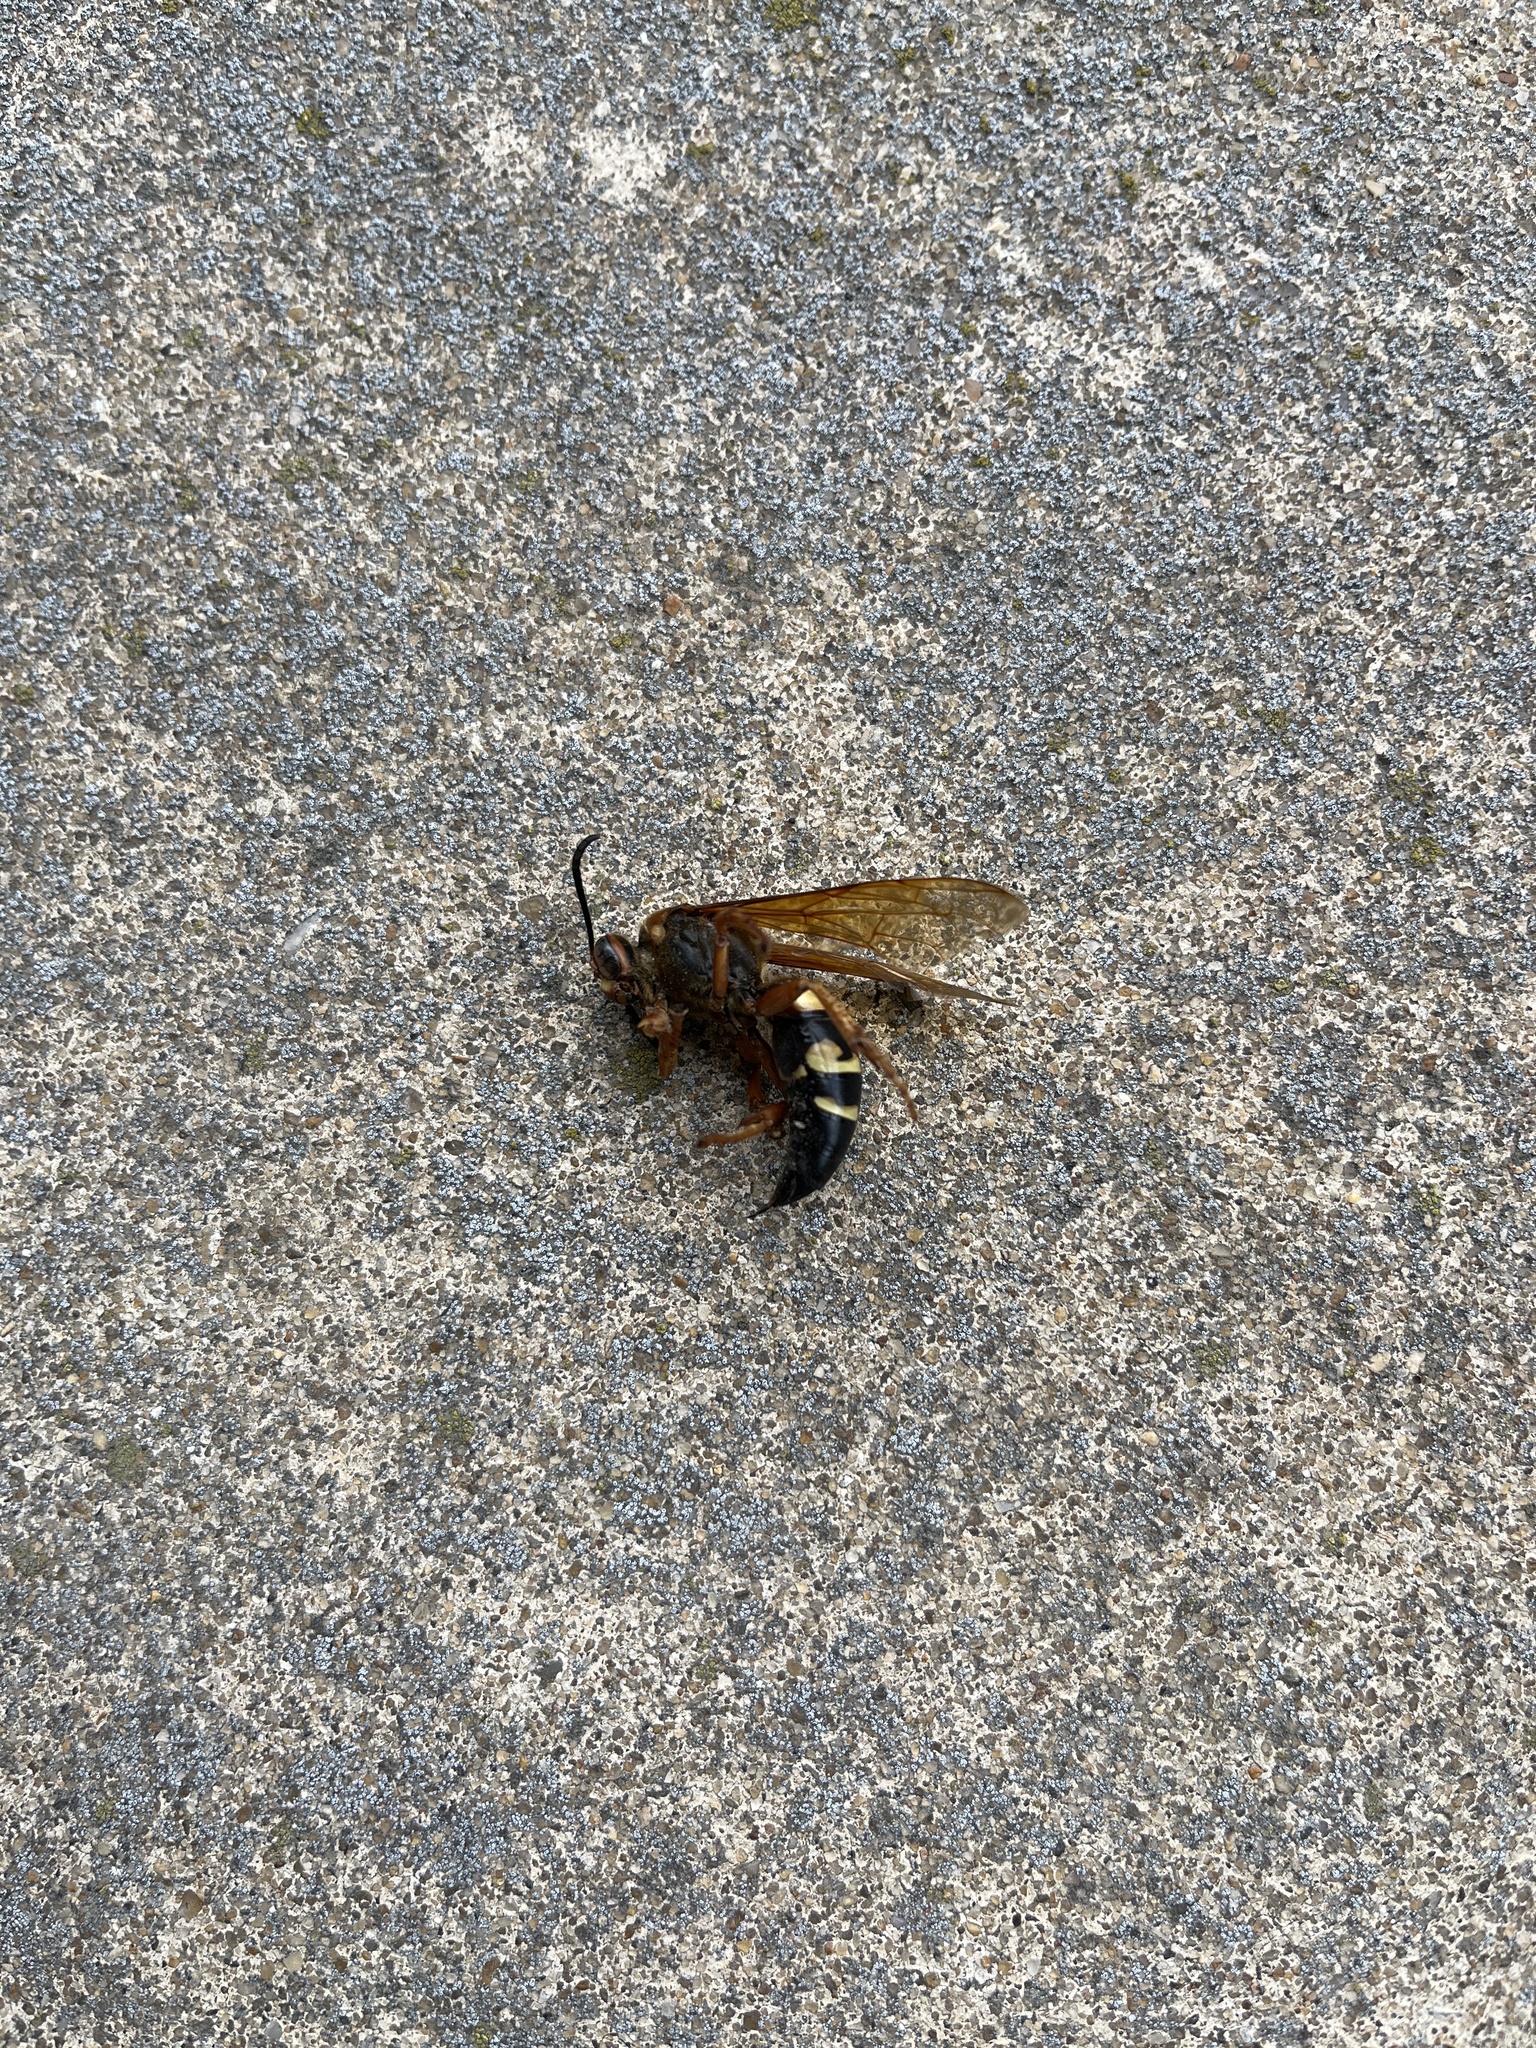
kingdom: Animalia
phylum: Arthropoda
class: Insecta
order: Hymenoptera
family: Crabronidae
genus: Sphecius
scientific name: Sphecius speciosus
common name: Cicada killer
